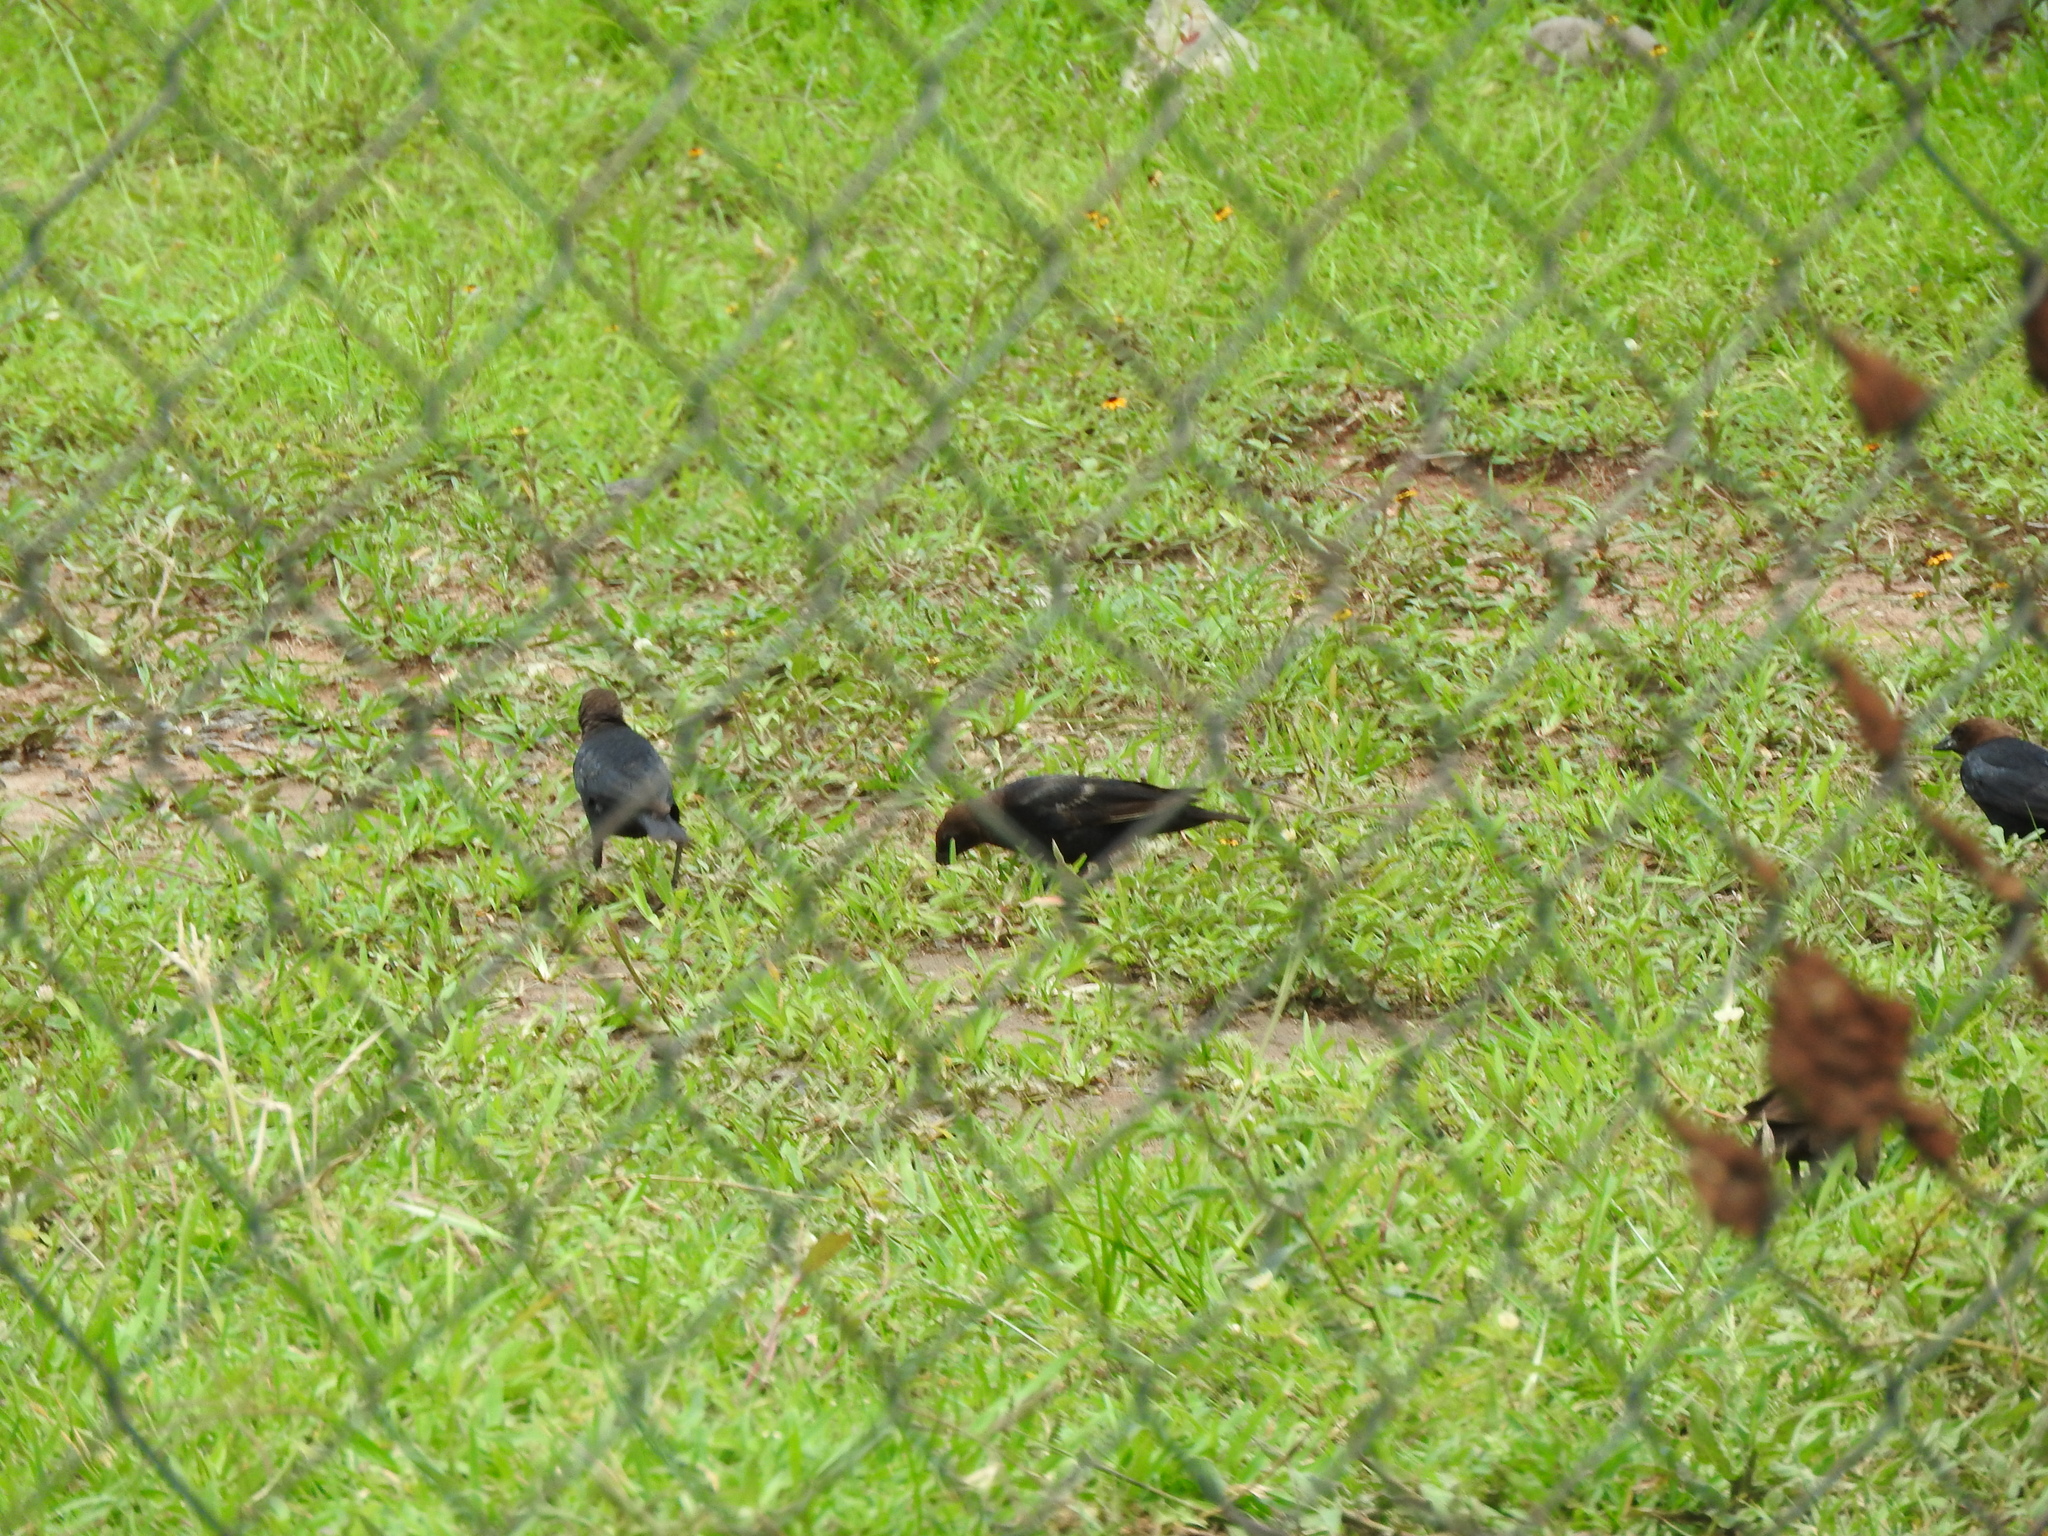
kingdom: Animalia
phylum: Chordata
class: Aves
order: Passeriformes
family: Icteridae
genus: Molothrus
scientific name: Molothrus ater
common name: Brown-headed cowbird
